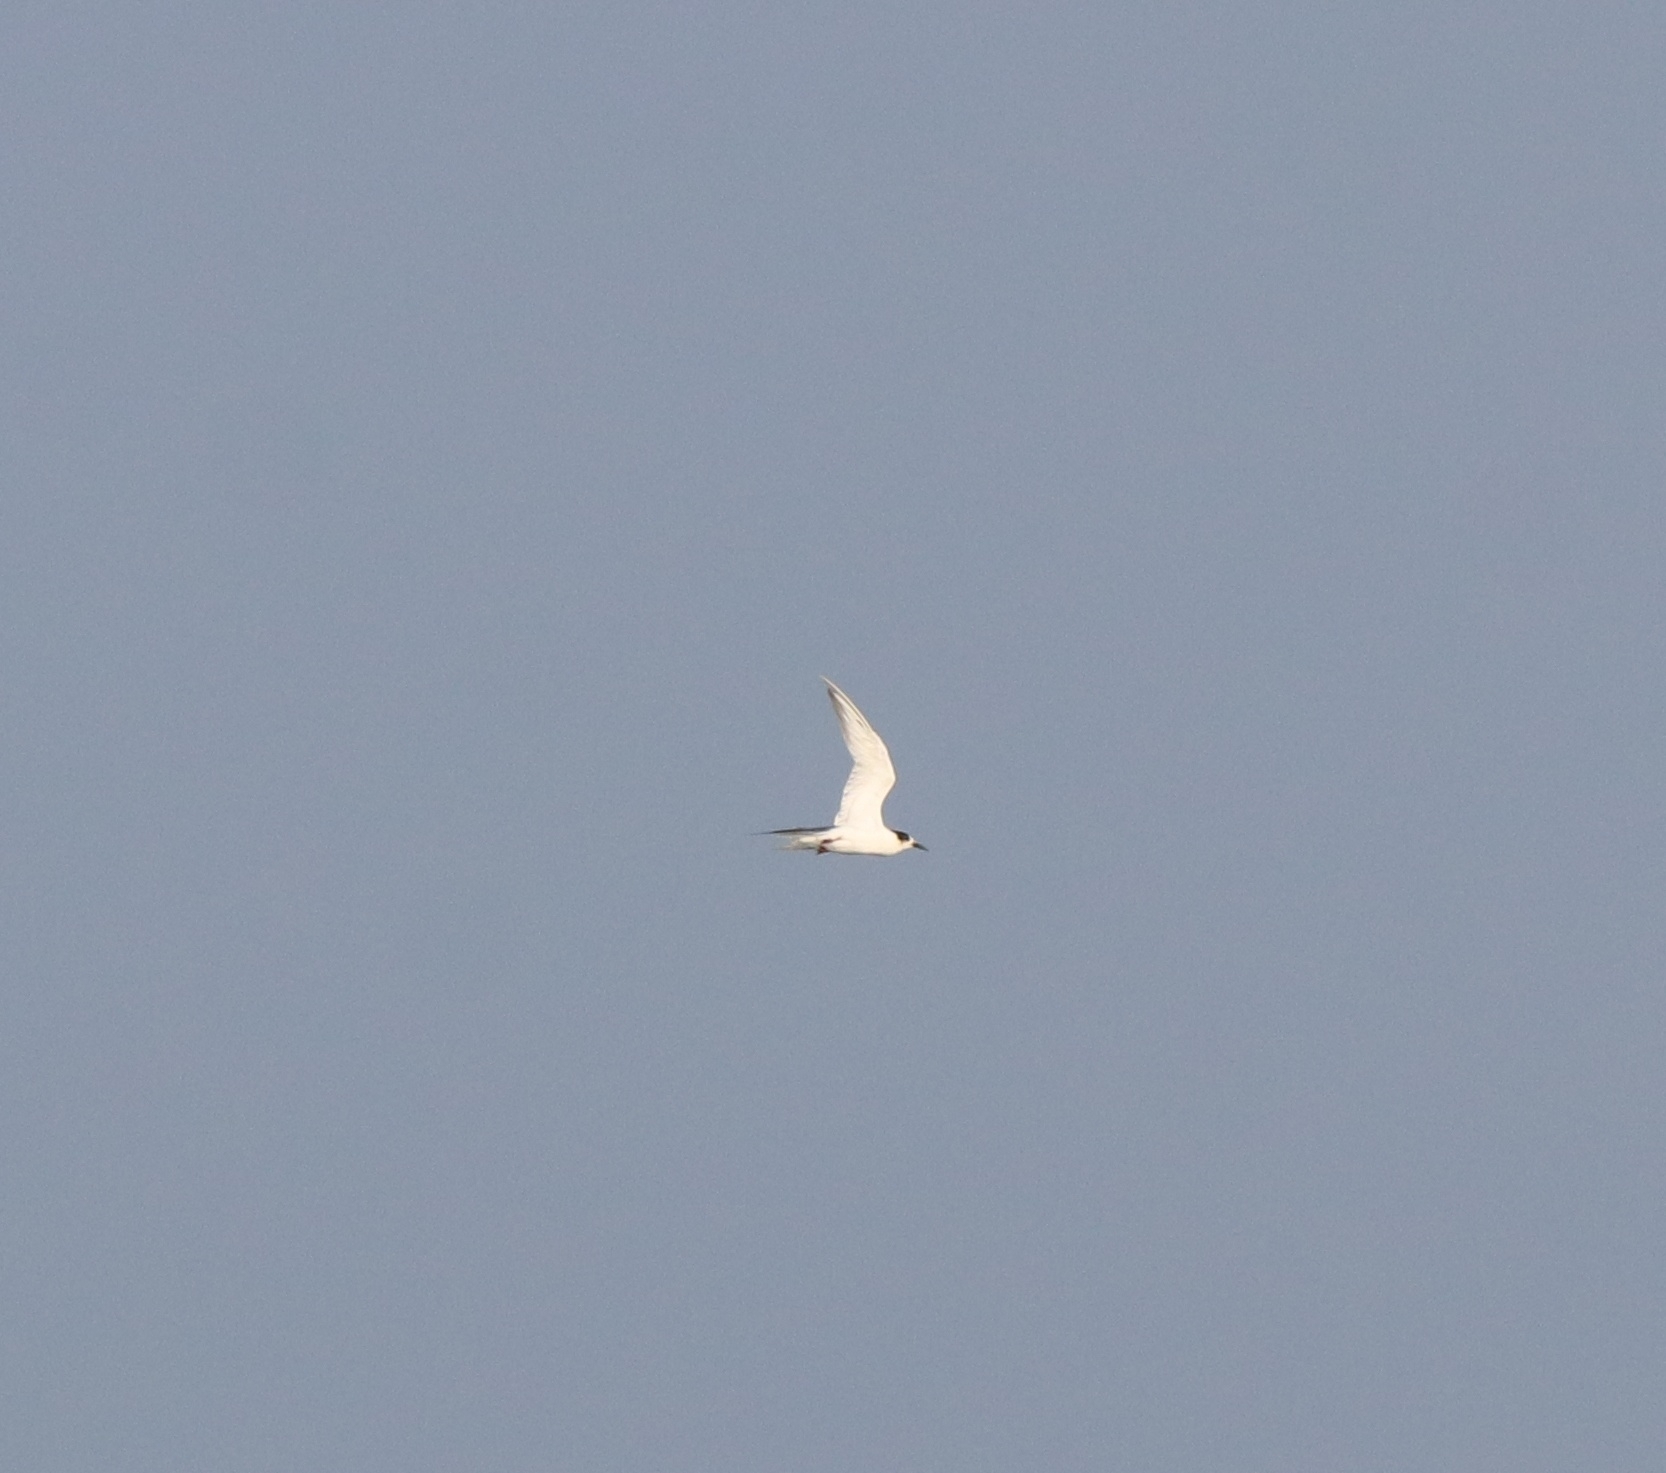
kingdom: Animalia
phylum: Chordata
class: Aves
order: Charadriiformes
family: Laridae
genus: Sterna
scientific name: Sterna hirundo
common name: Common tern
